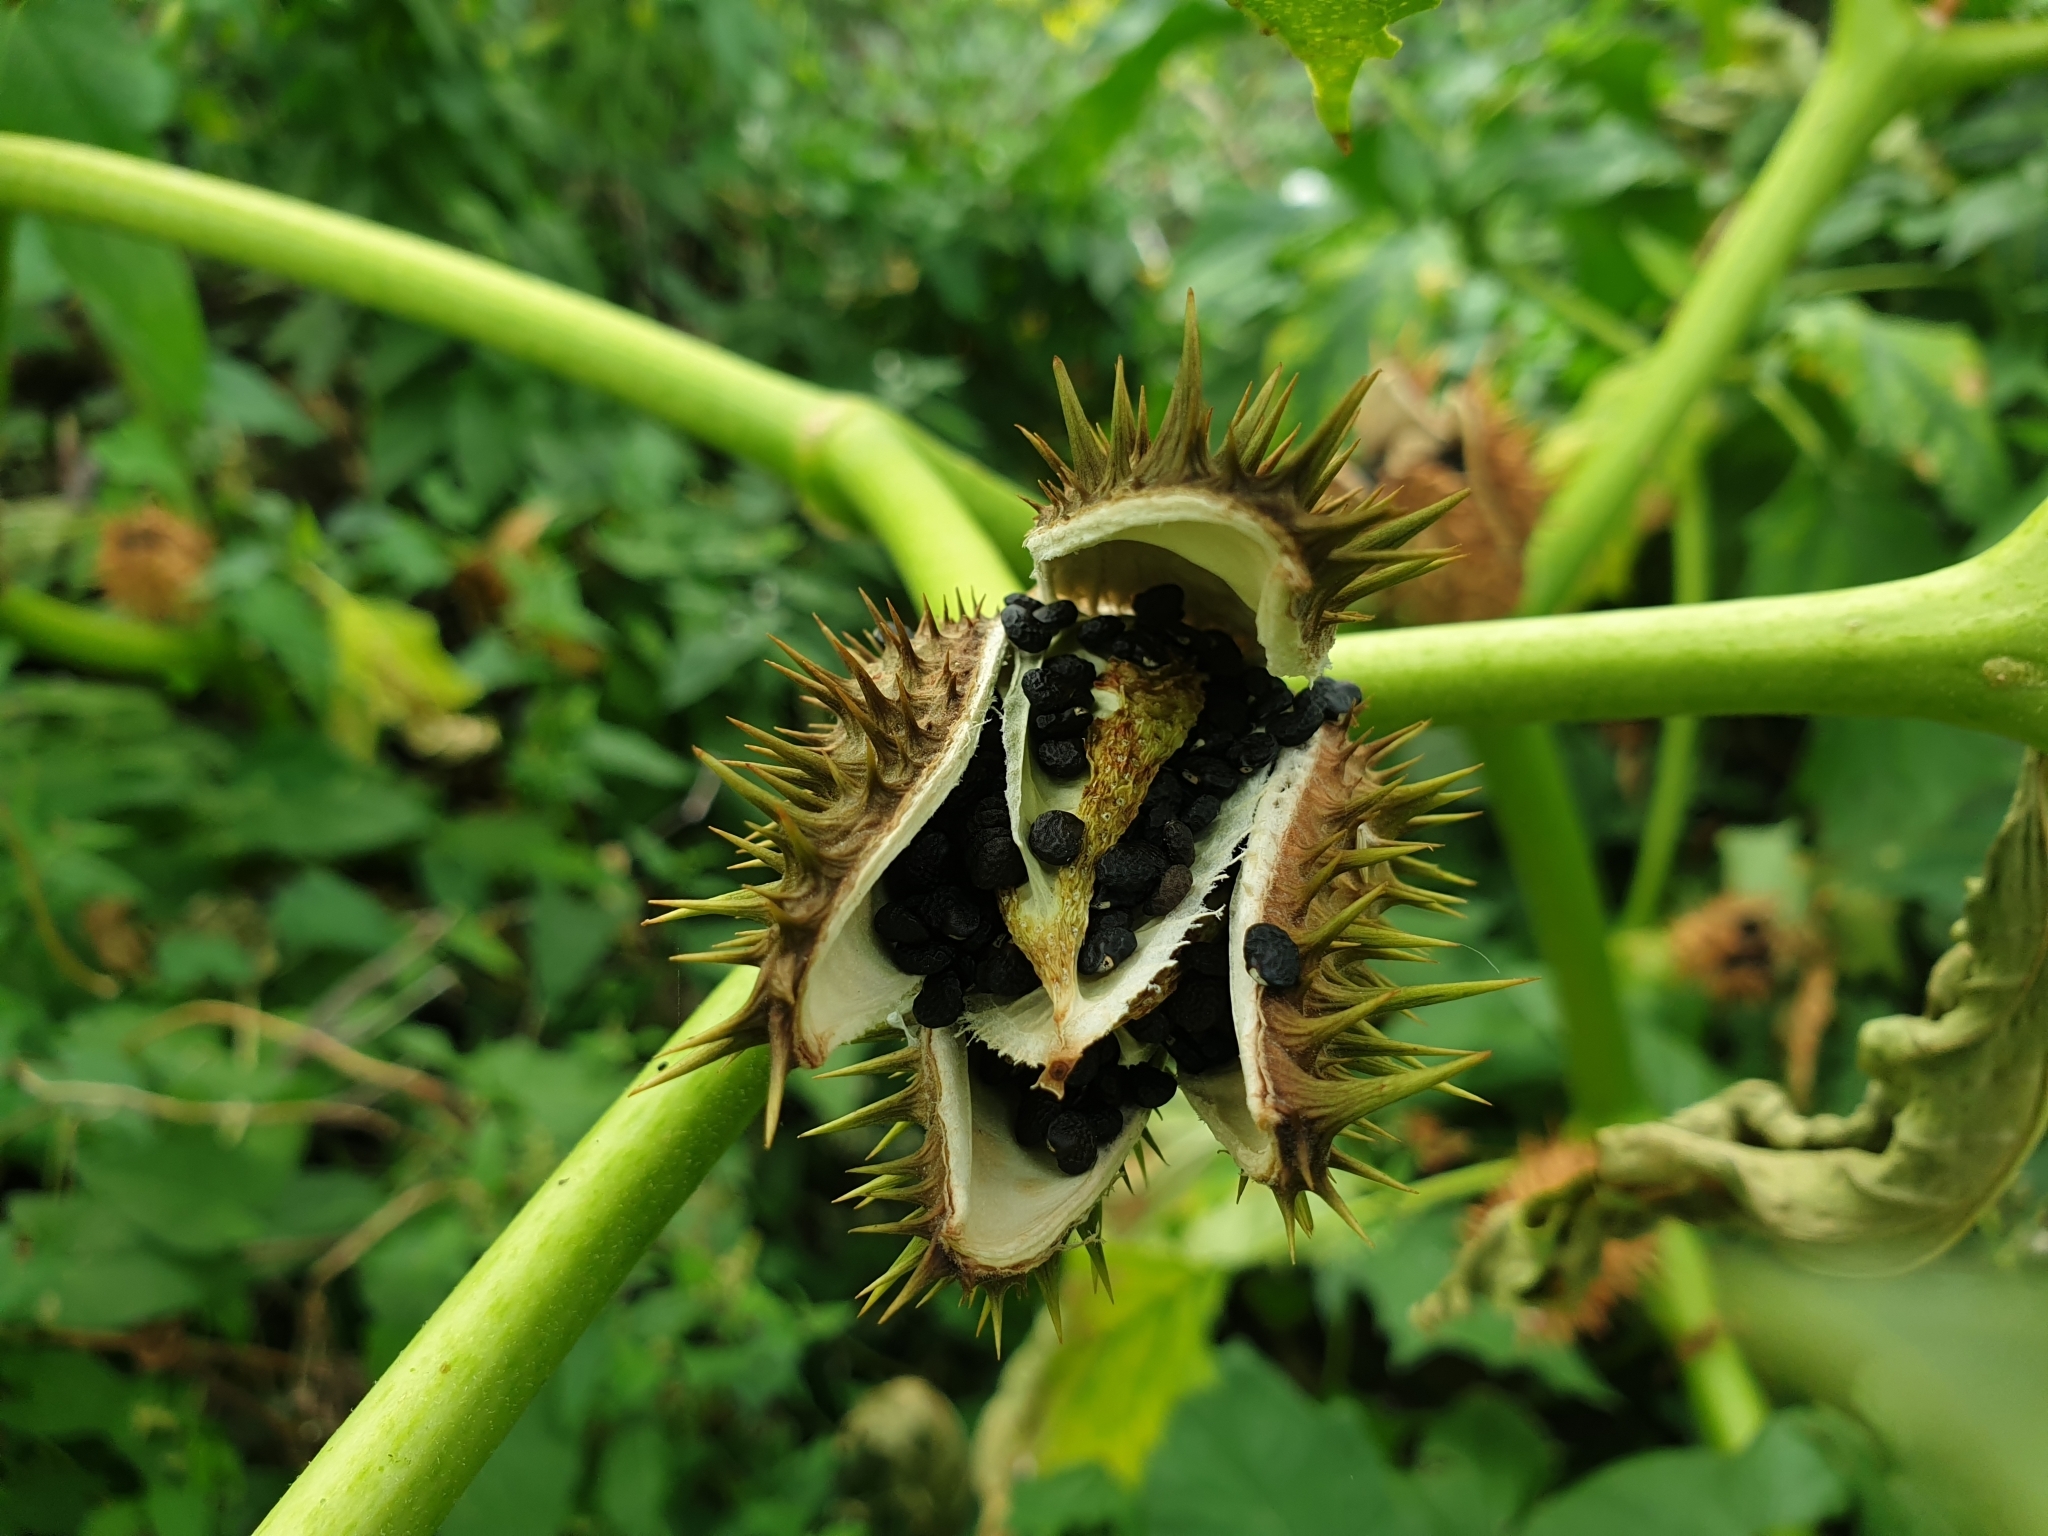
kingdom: Plantae
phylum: Tracheophyta
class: Magnoliopsida
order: Solanales
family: Solanaceae
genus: Datura
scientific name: Datura stramonium
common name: Thorn-apple
